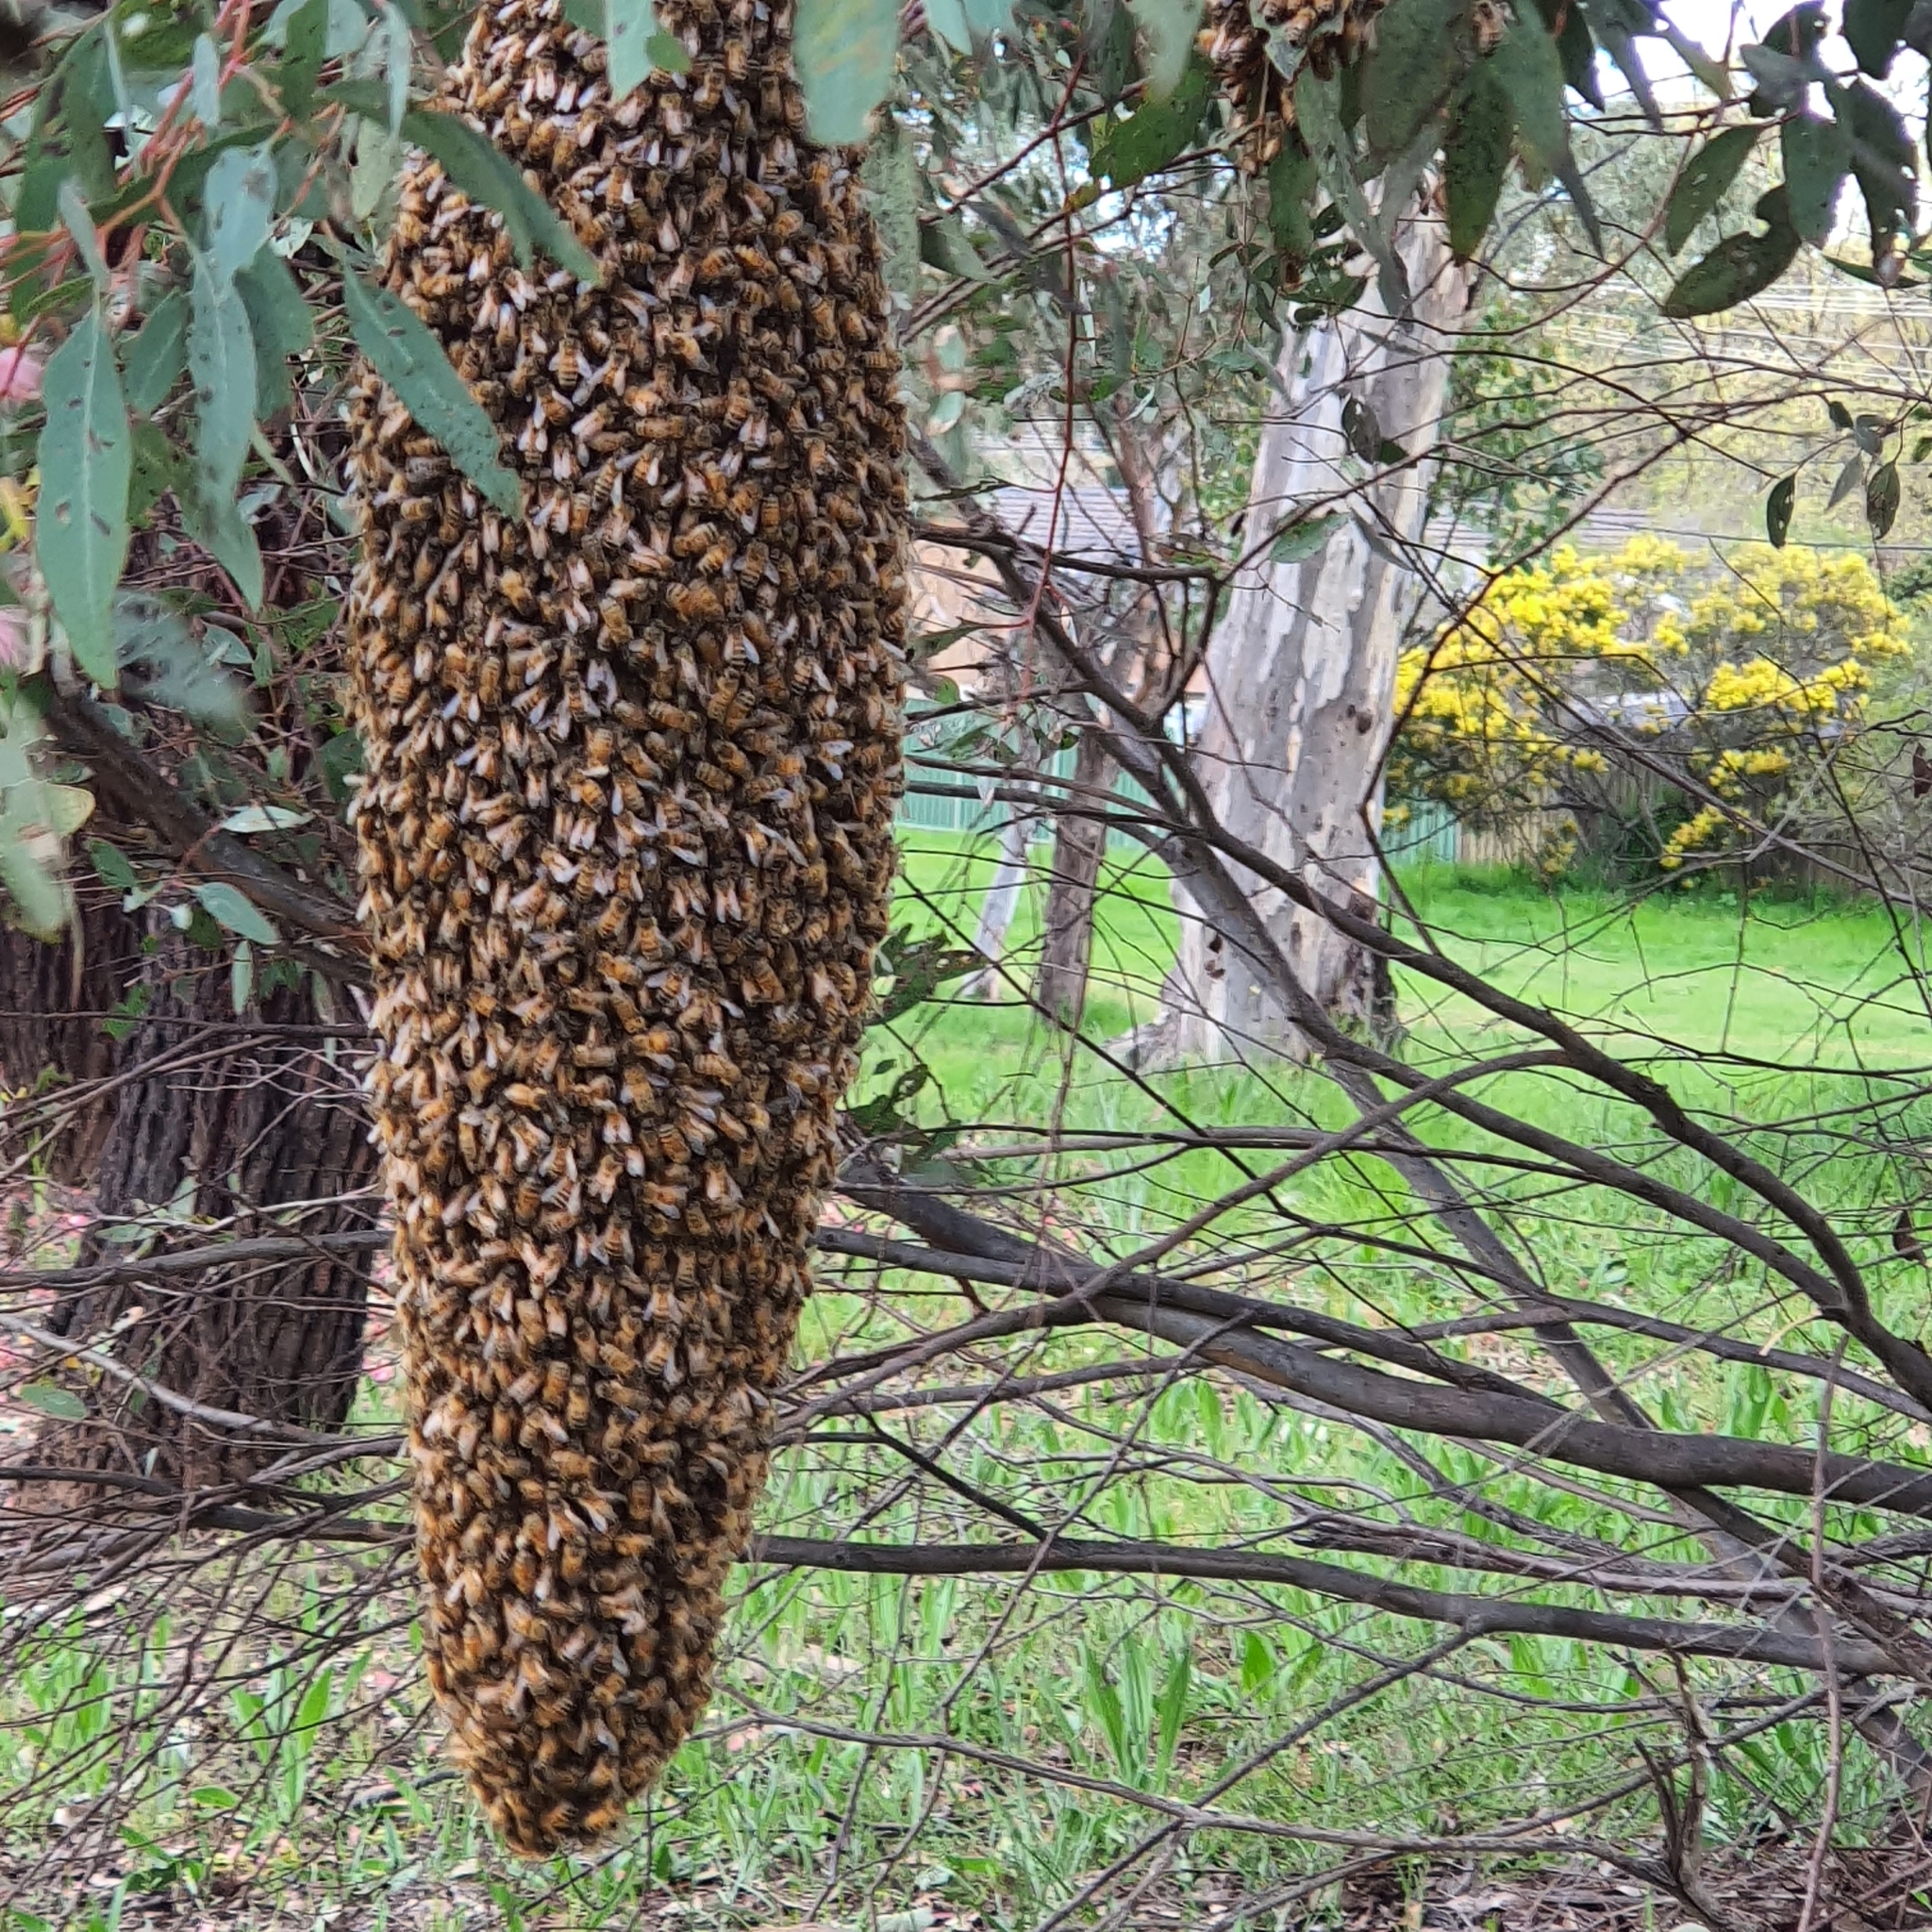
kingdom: Animalia
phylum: Arthropoda
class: Insecta
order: Hymenoptera
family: Apidae
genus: Apis
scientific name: Apis mellifera
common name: Honey bee
